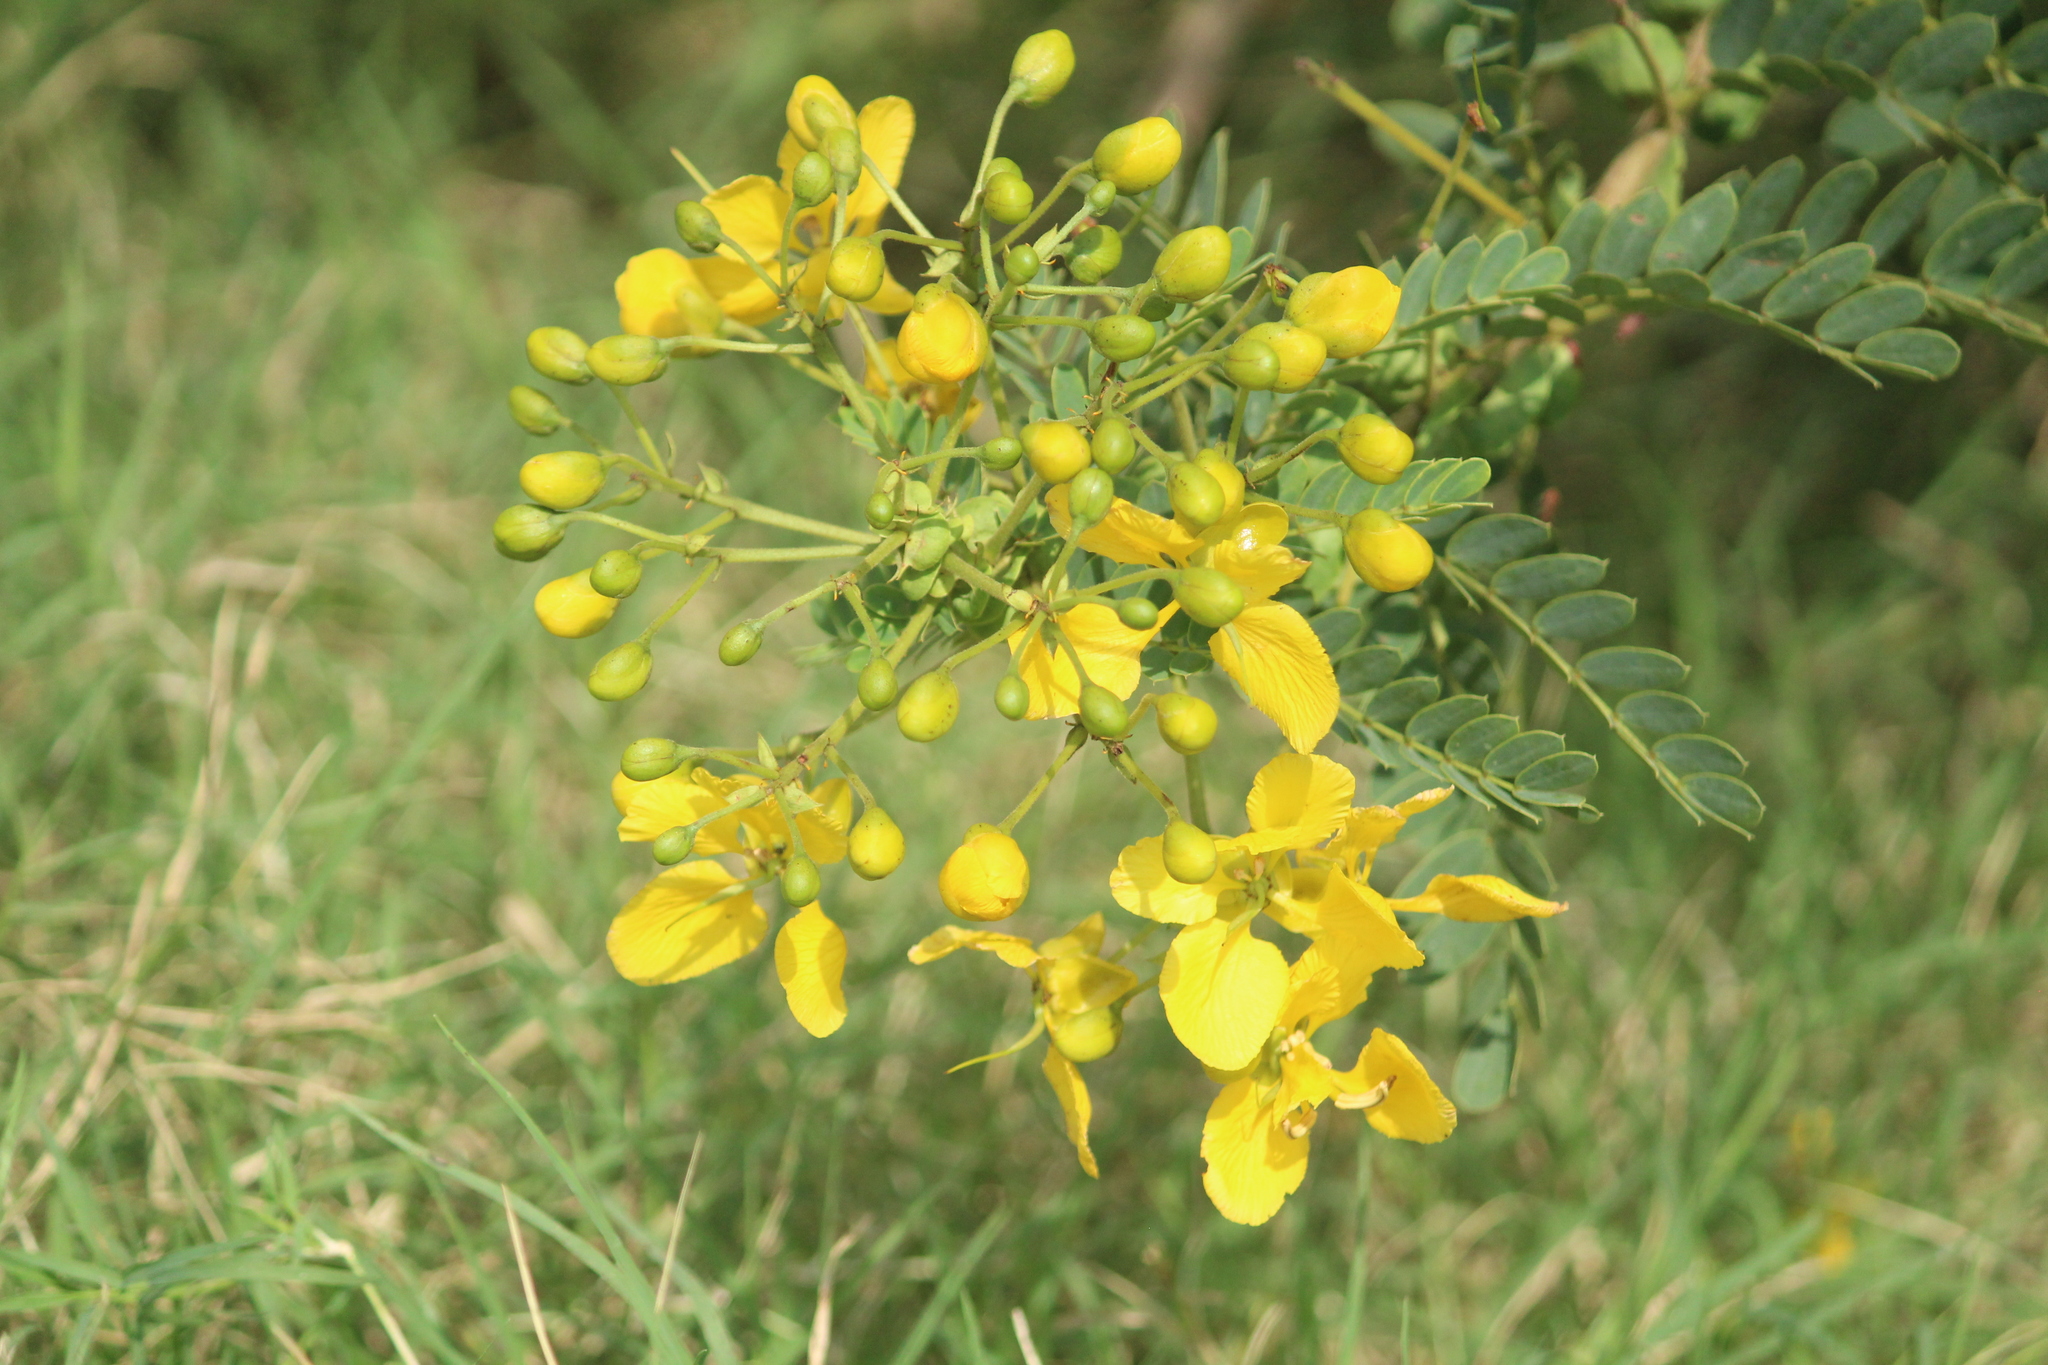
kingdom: Plantae
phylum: Tracheophyta
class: Magnoliopsida
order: Fabales
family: Fabaceae
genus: Senna
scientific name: Senna auriculata
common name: Tanner's cassia
